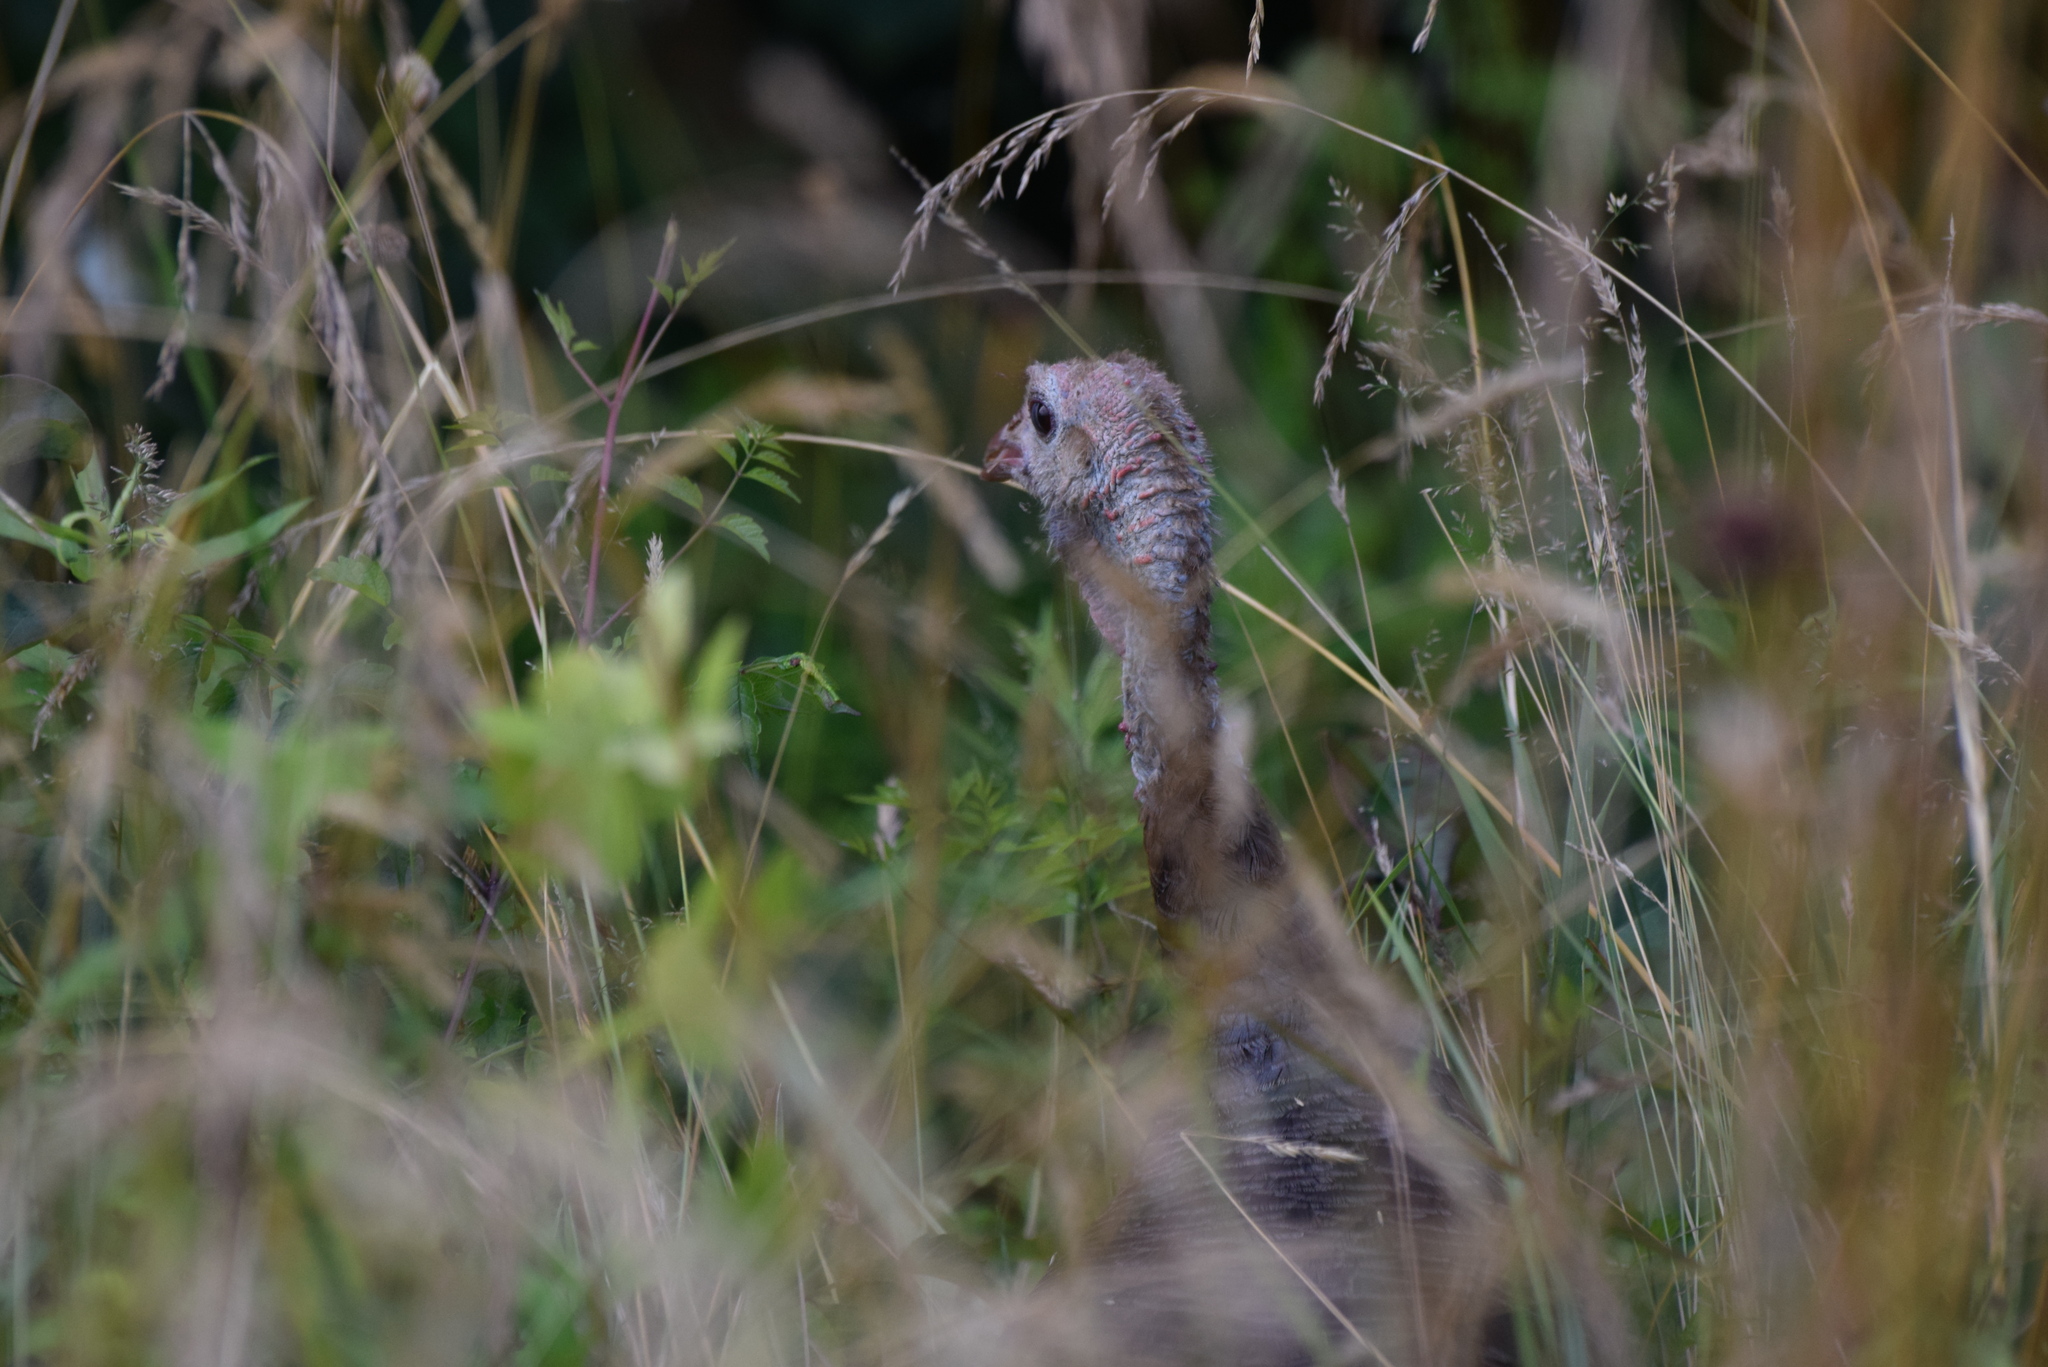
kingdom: Animalia
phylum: Chordata
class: Aves
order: Galliformes
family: Phasianidae
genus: Meleagris
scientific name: Meleagris gallopavo
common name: Wild turkey
